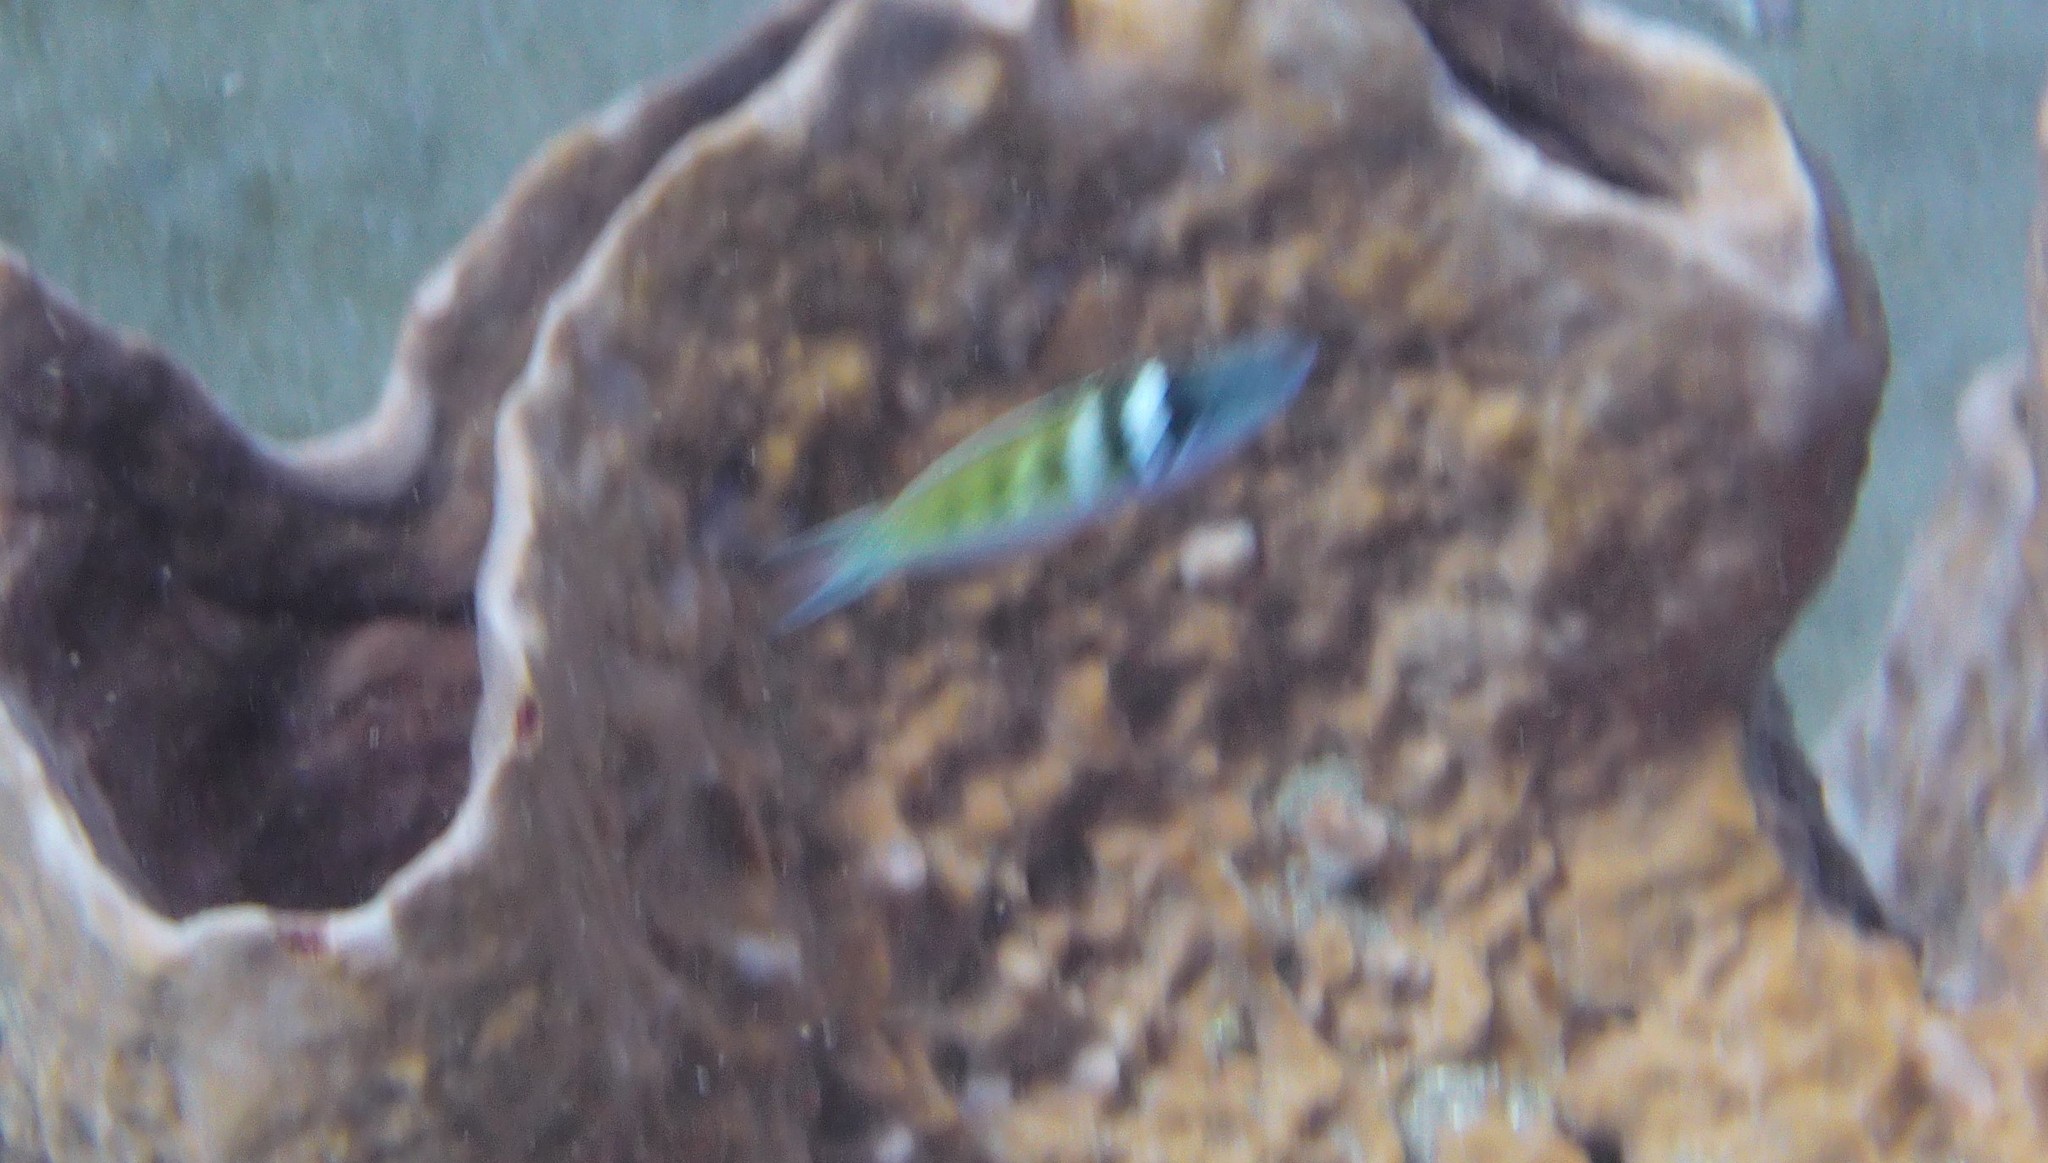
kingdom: Animalia
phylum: Chordata
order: Perciformes
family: Labridae
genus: Thalassoma
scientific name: Thalassoma bifasciatum
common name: Bluehead wrasse
